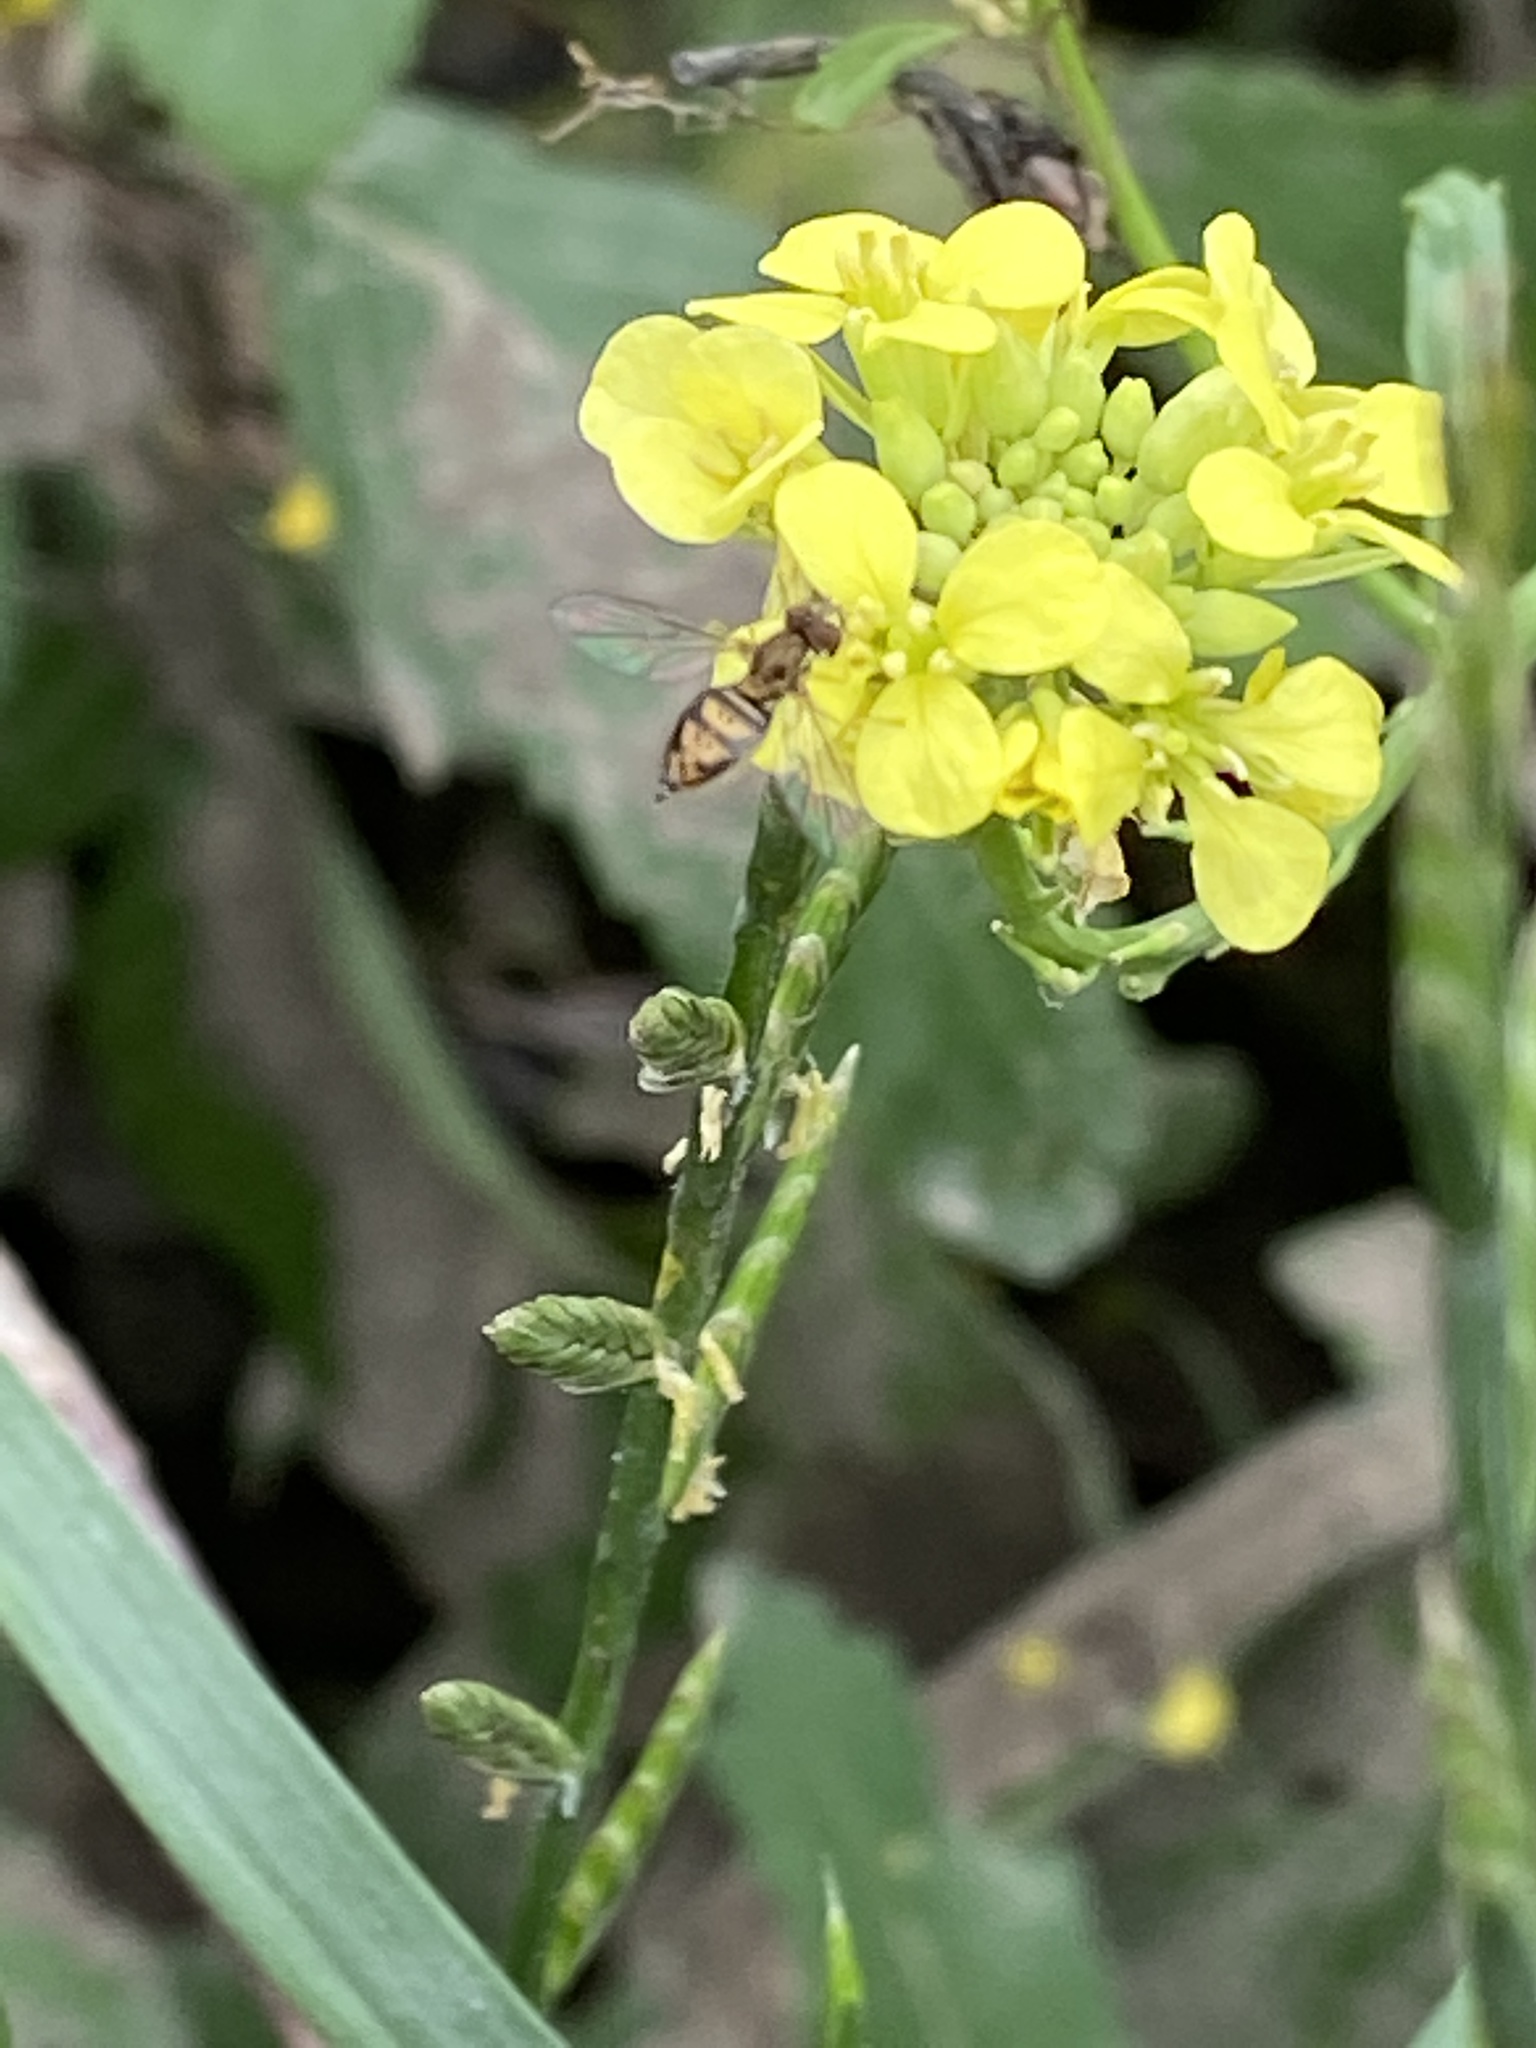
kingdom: Animalia
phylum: Arthropoda
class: Insecta
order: Diptera
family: Syrphidae
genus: Toxomerus
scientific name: Toxomerus marginatus
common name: Syrphid fly
